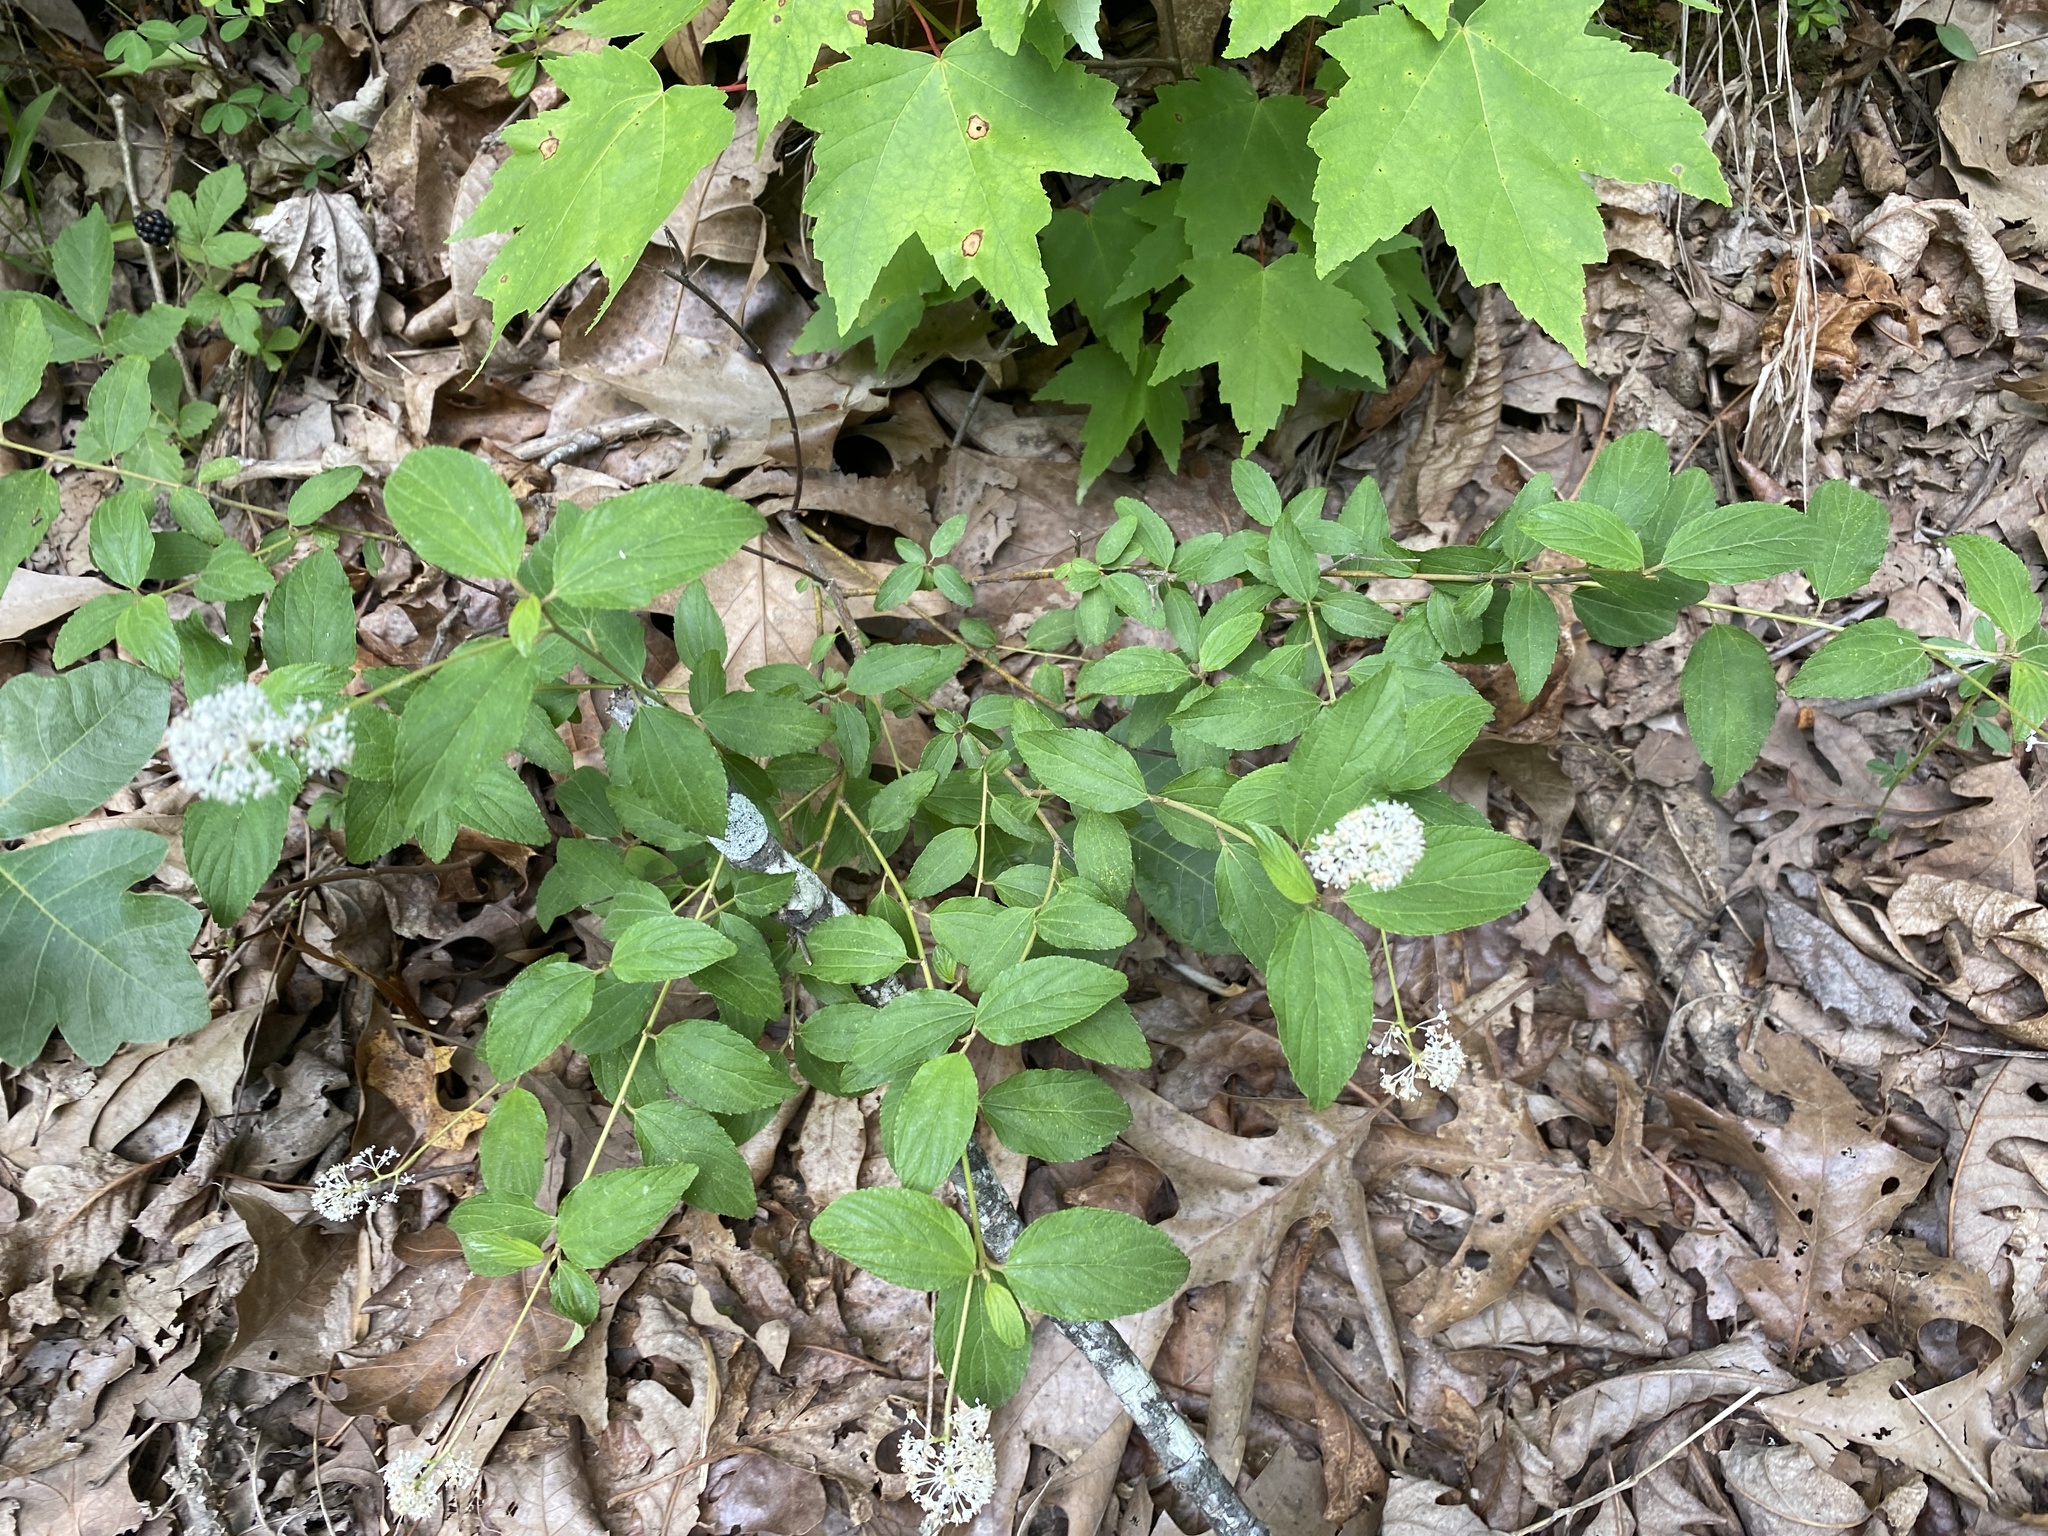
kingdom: Plantae
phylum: Tracheophyta
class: Magnoliopsida
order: Rosales
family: Rhamnaceae
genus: Ceanothus
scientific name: Ceanothus americanus
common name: Redroot
